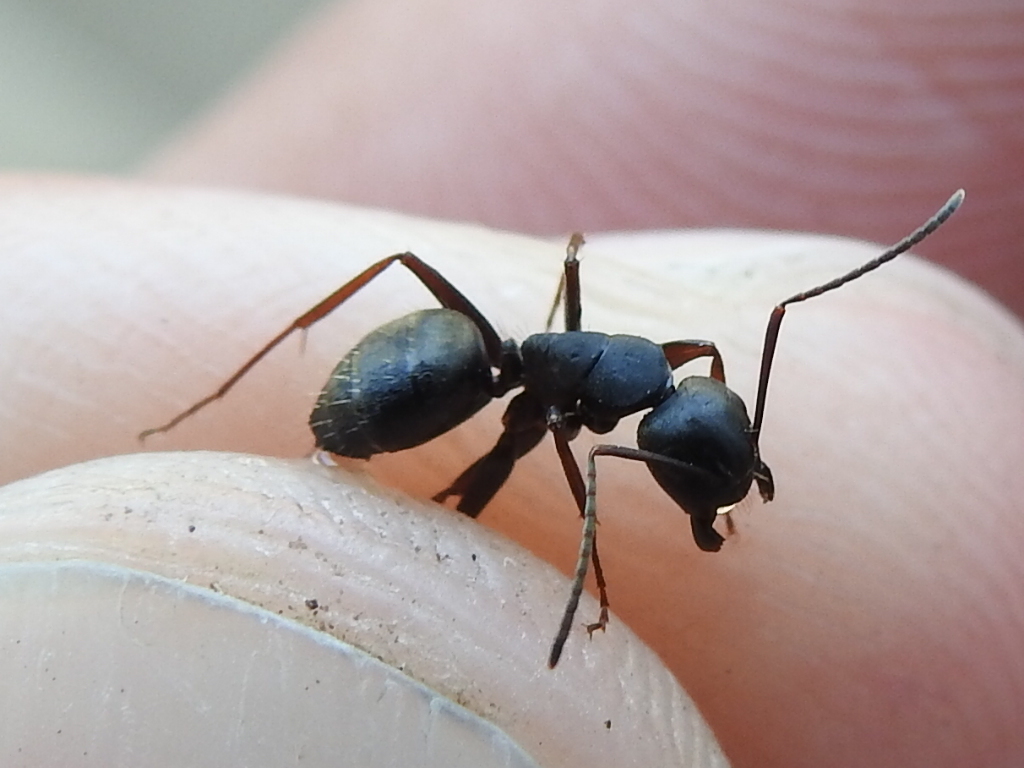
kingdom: Animalia
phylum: Arthropoda
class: Insecta
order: Hymenoptera
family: Formicidae
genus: Camponotus
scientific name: Camponotus modoc
